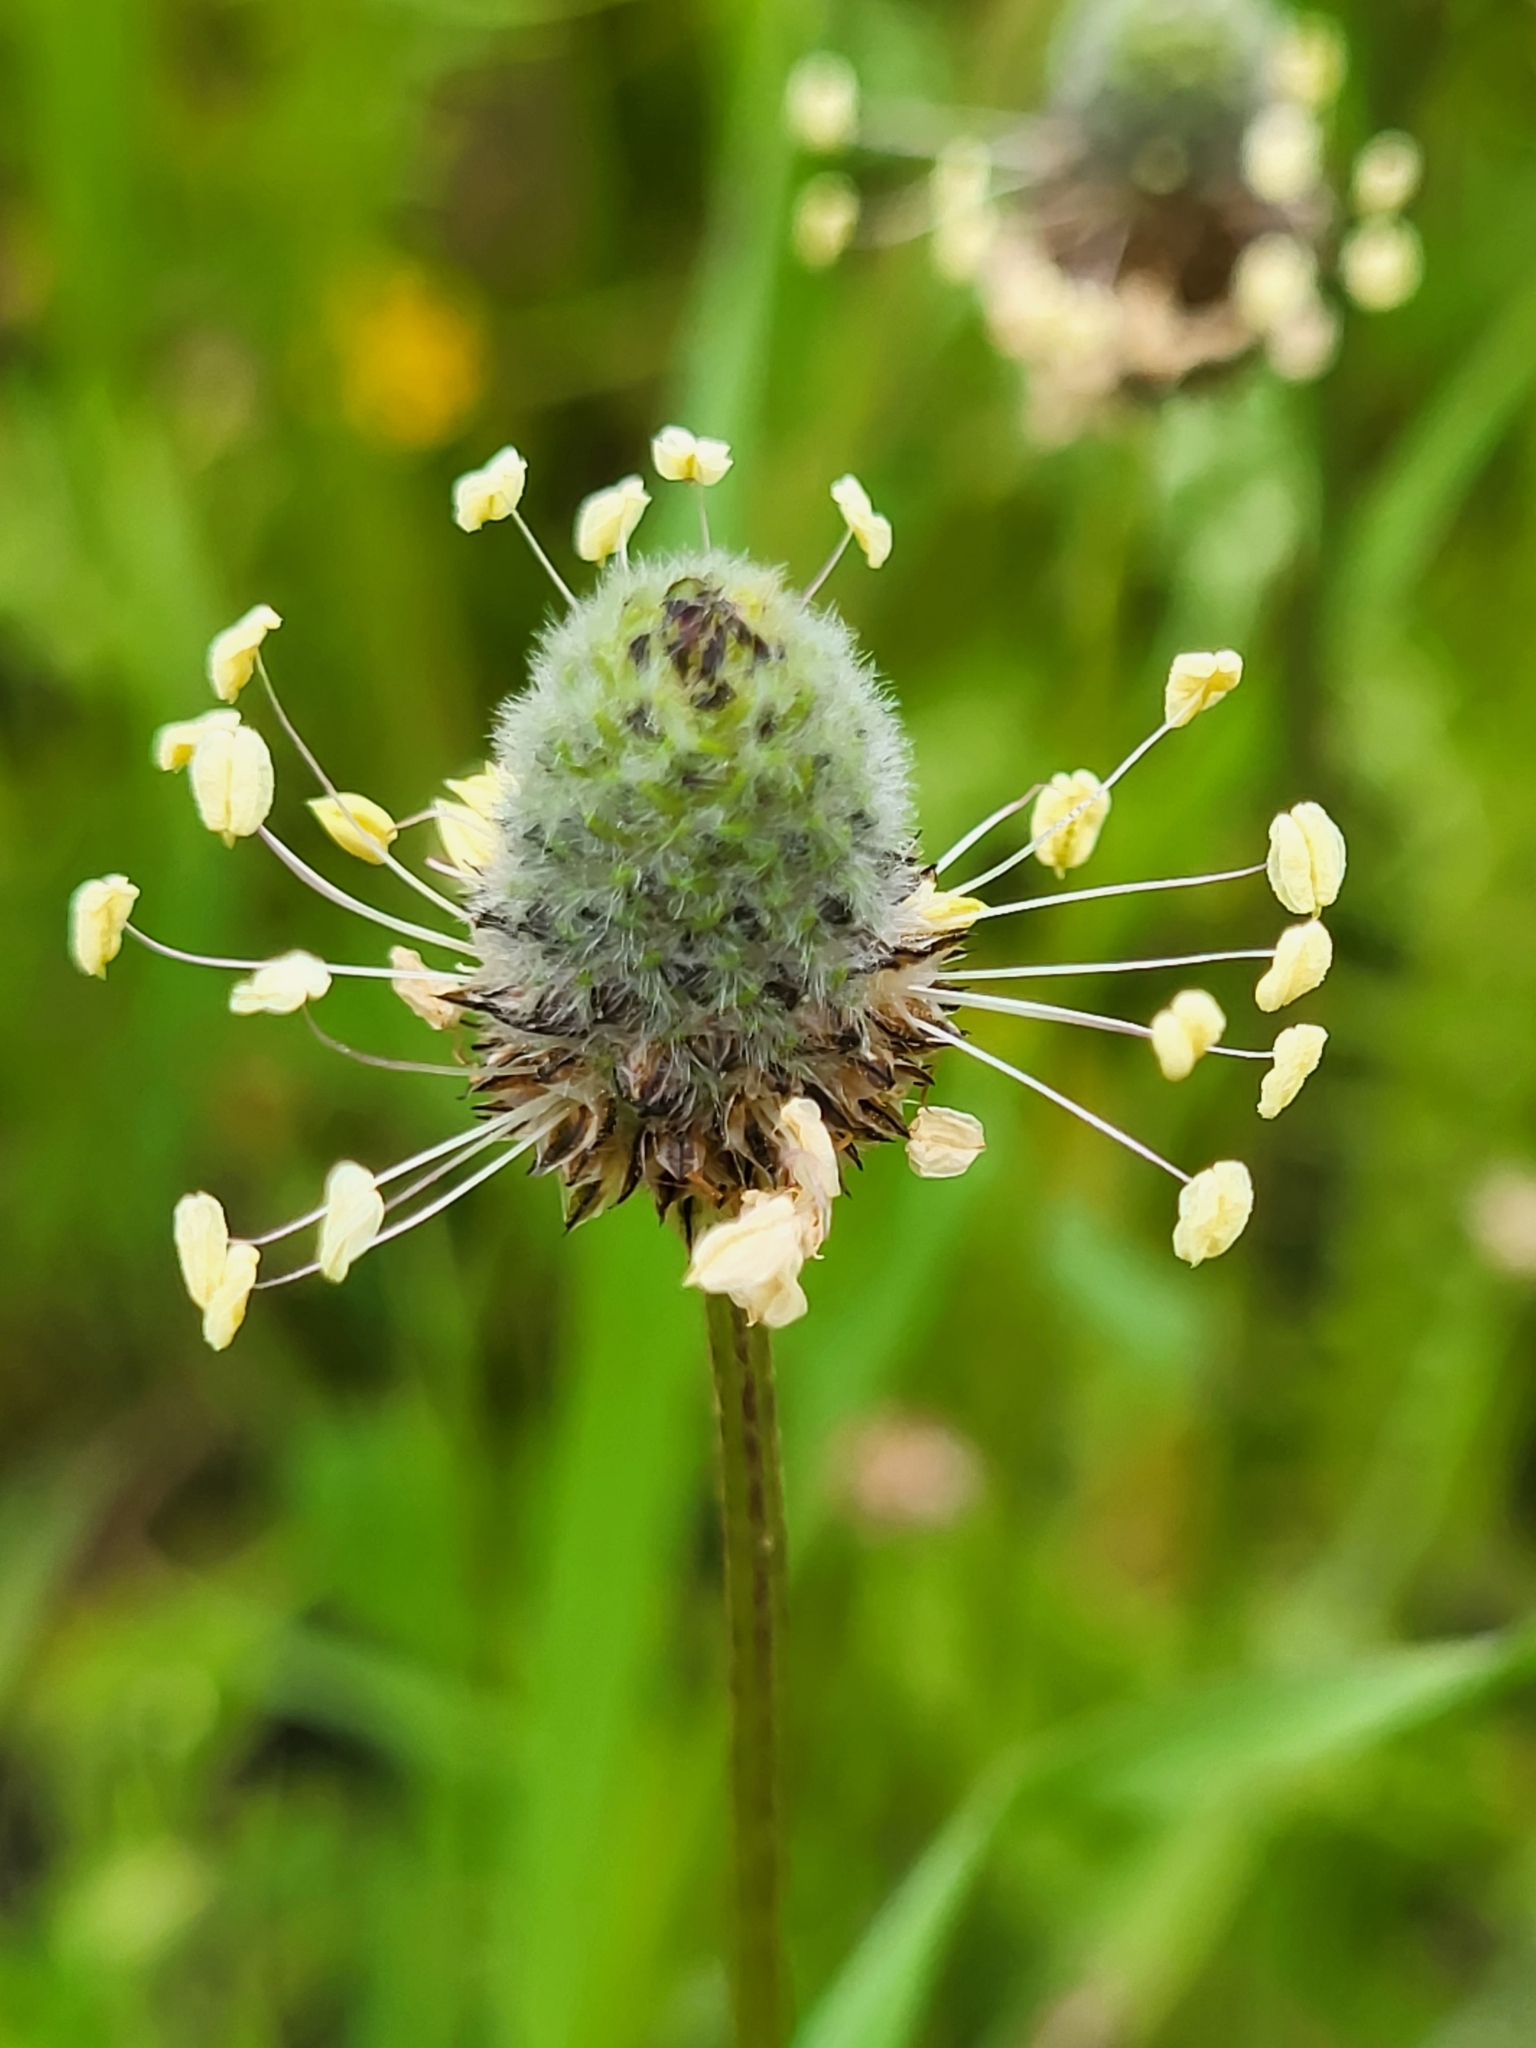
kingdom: Plantae
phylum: Tracheophyta
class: Magnoliopsida
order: Lamiales
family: Plantaginaceae
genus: Plantago
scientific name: Plantago lagopus
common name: Hare-foot plantain
